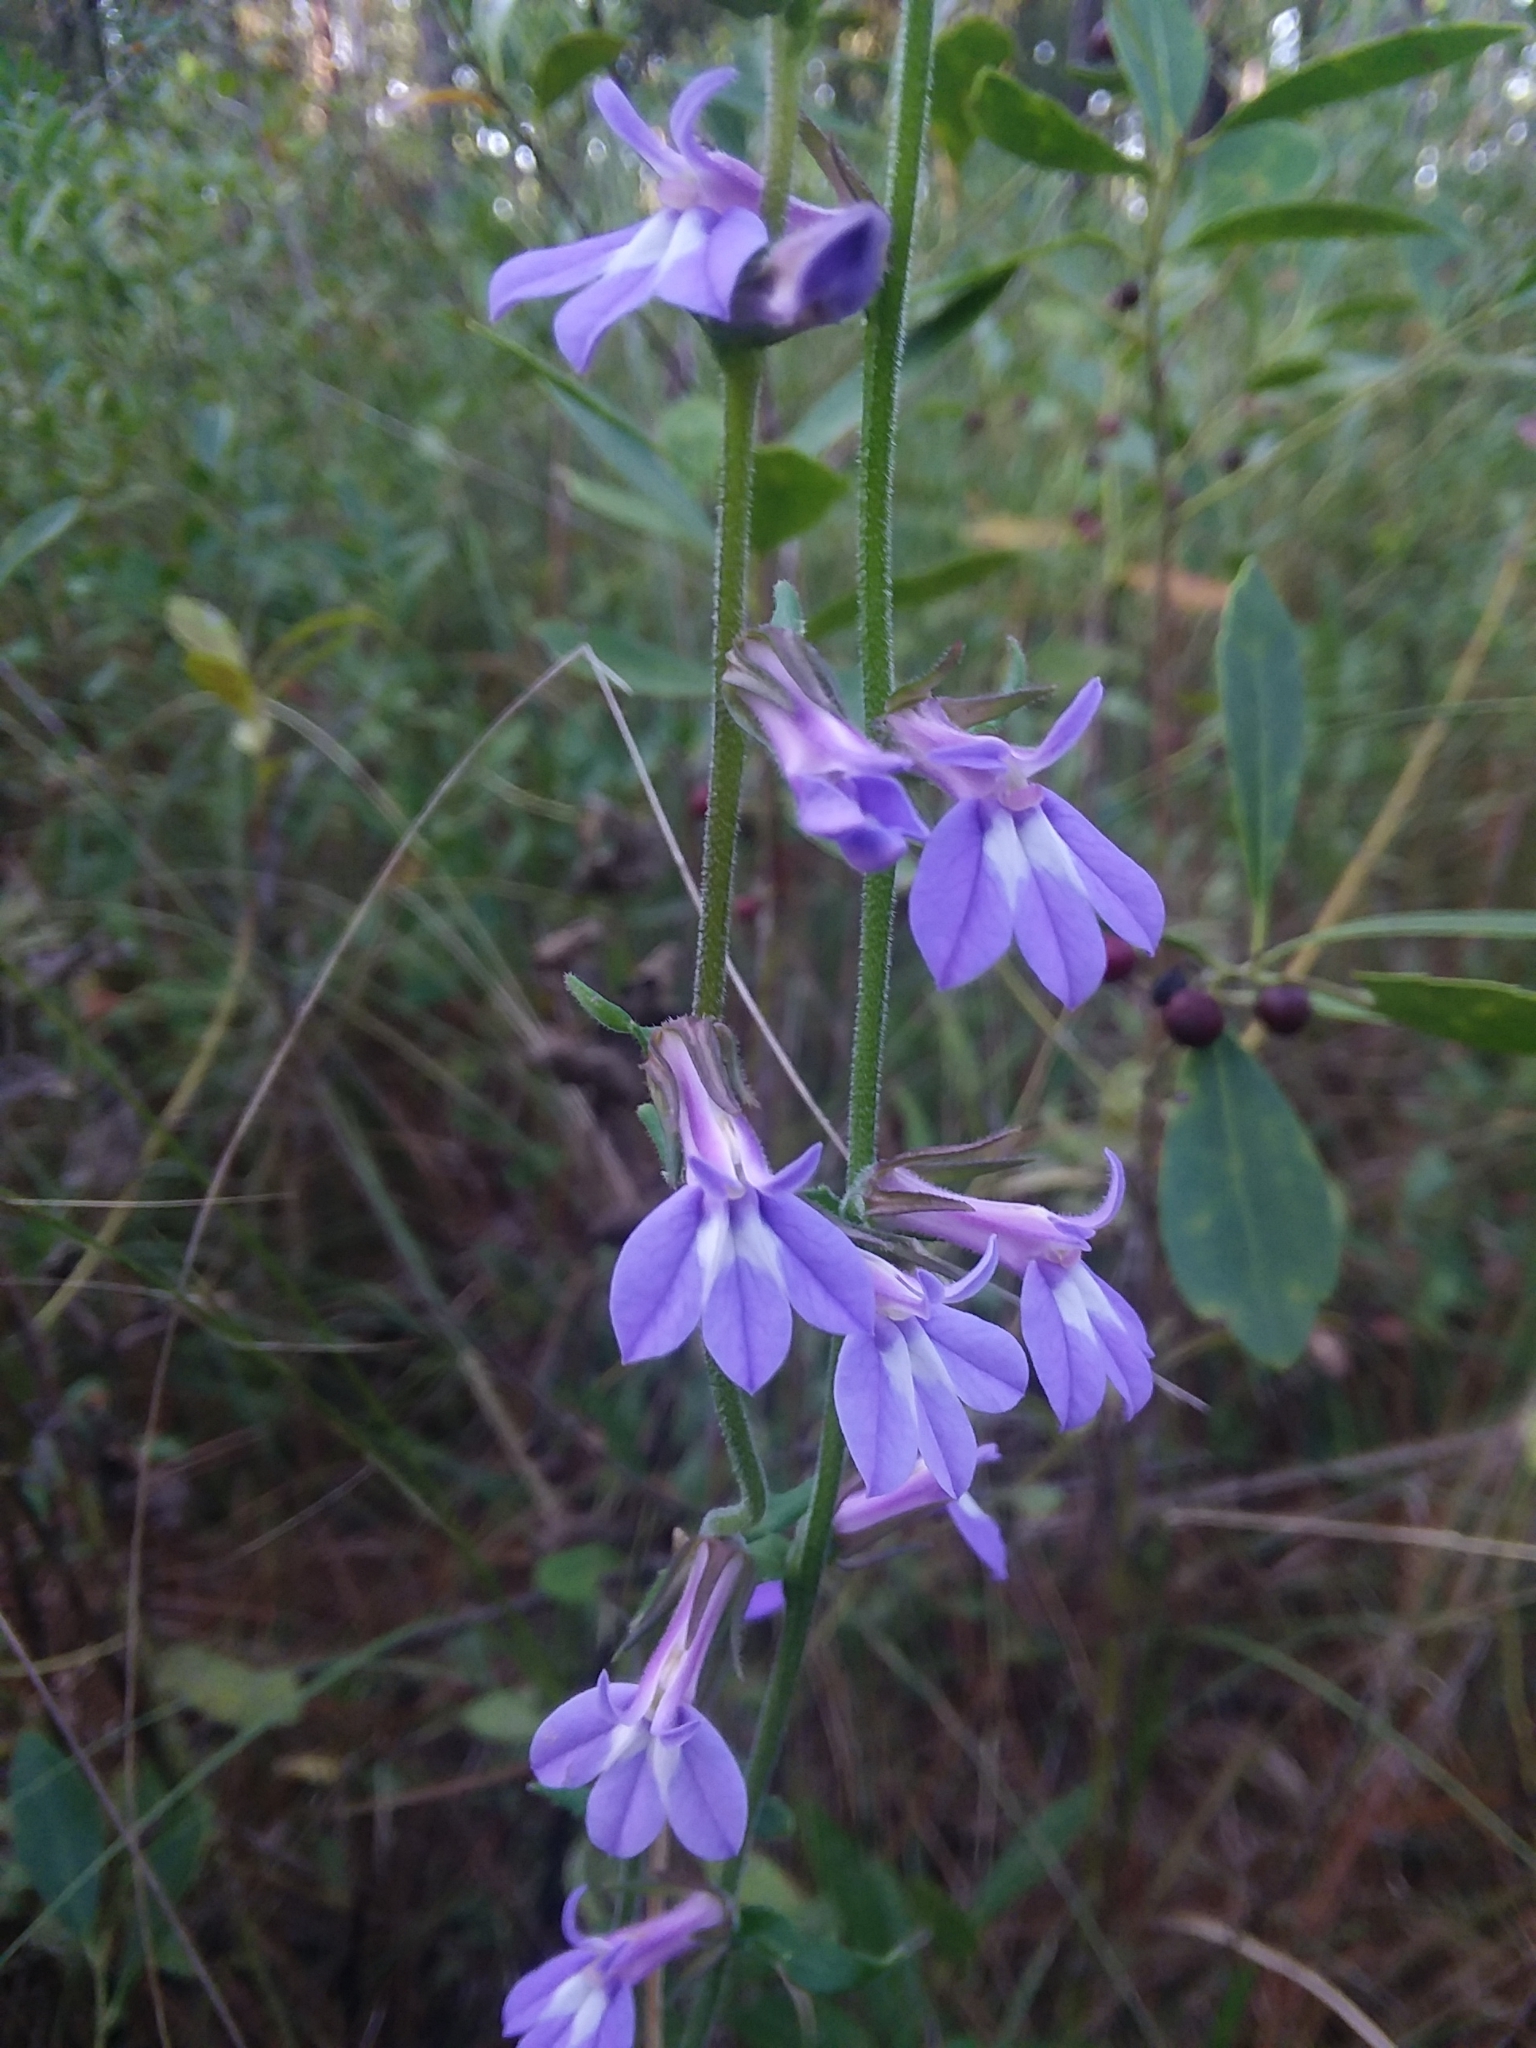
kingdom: Plantae
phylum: Tracheophyta
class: Magnoliopsida
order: Asterales
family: Campanulaceae
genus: Lobelia
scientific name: Lobelia puberula
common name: Purple dewdrop
